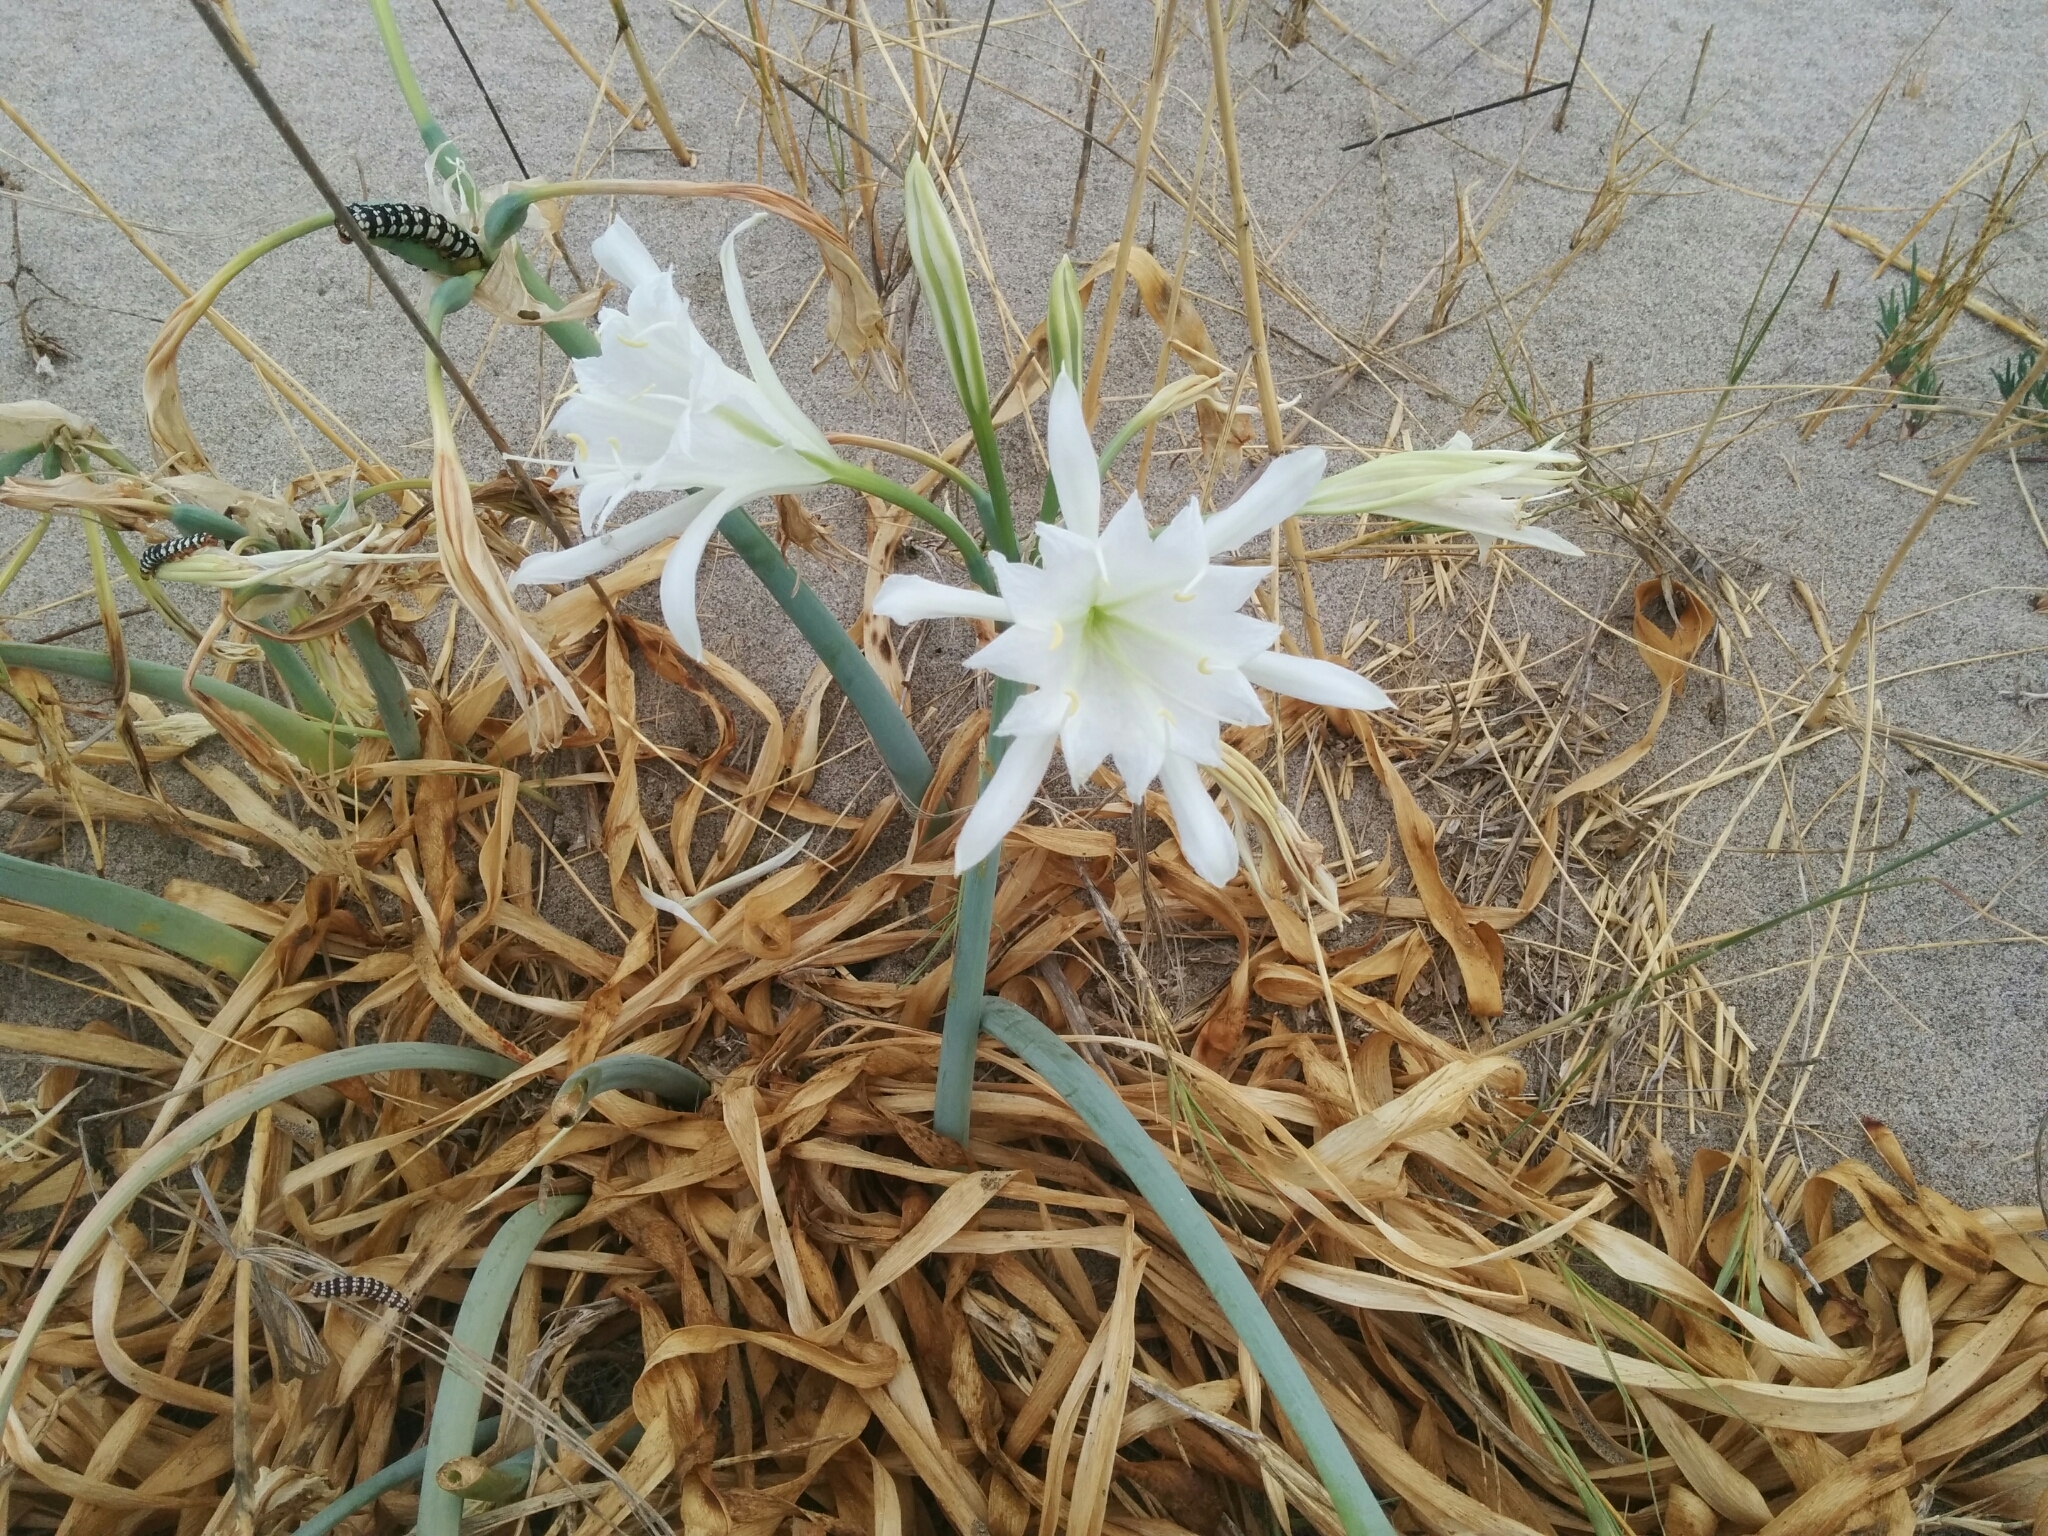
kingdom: Plantae
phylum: Tracheophyta
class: Liliopsida
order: Asparagales
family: Amaryllidaceae
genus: Pancratium
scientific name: Pancratium maritimum
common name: Sea-daffodil
